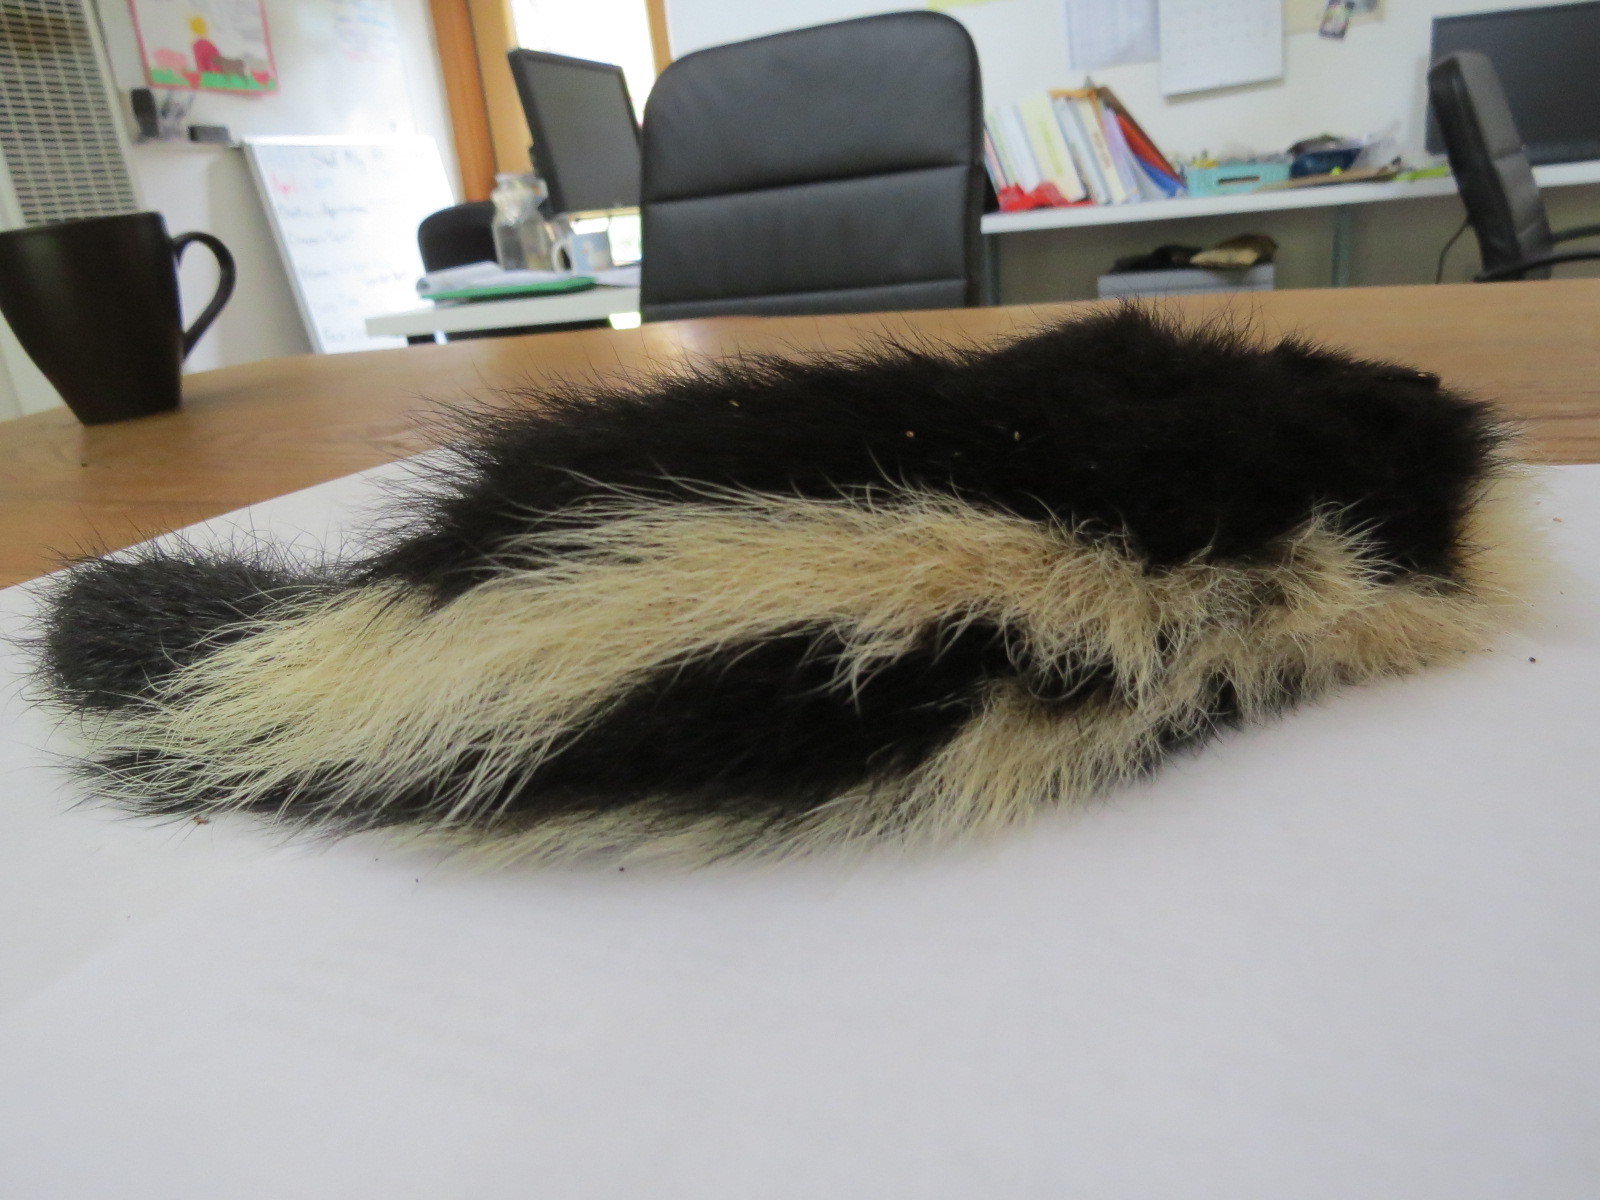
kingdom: Animalia
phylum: Chordata
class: Mammalia
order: Carnivora
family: Mephitidae
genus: Mephitis
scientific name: Mephitis mephitis
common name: Striped skunk
